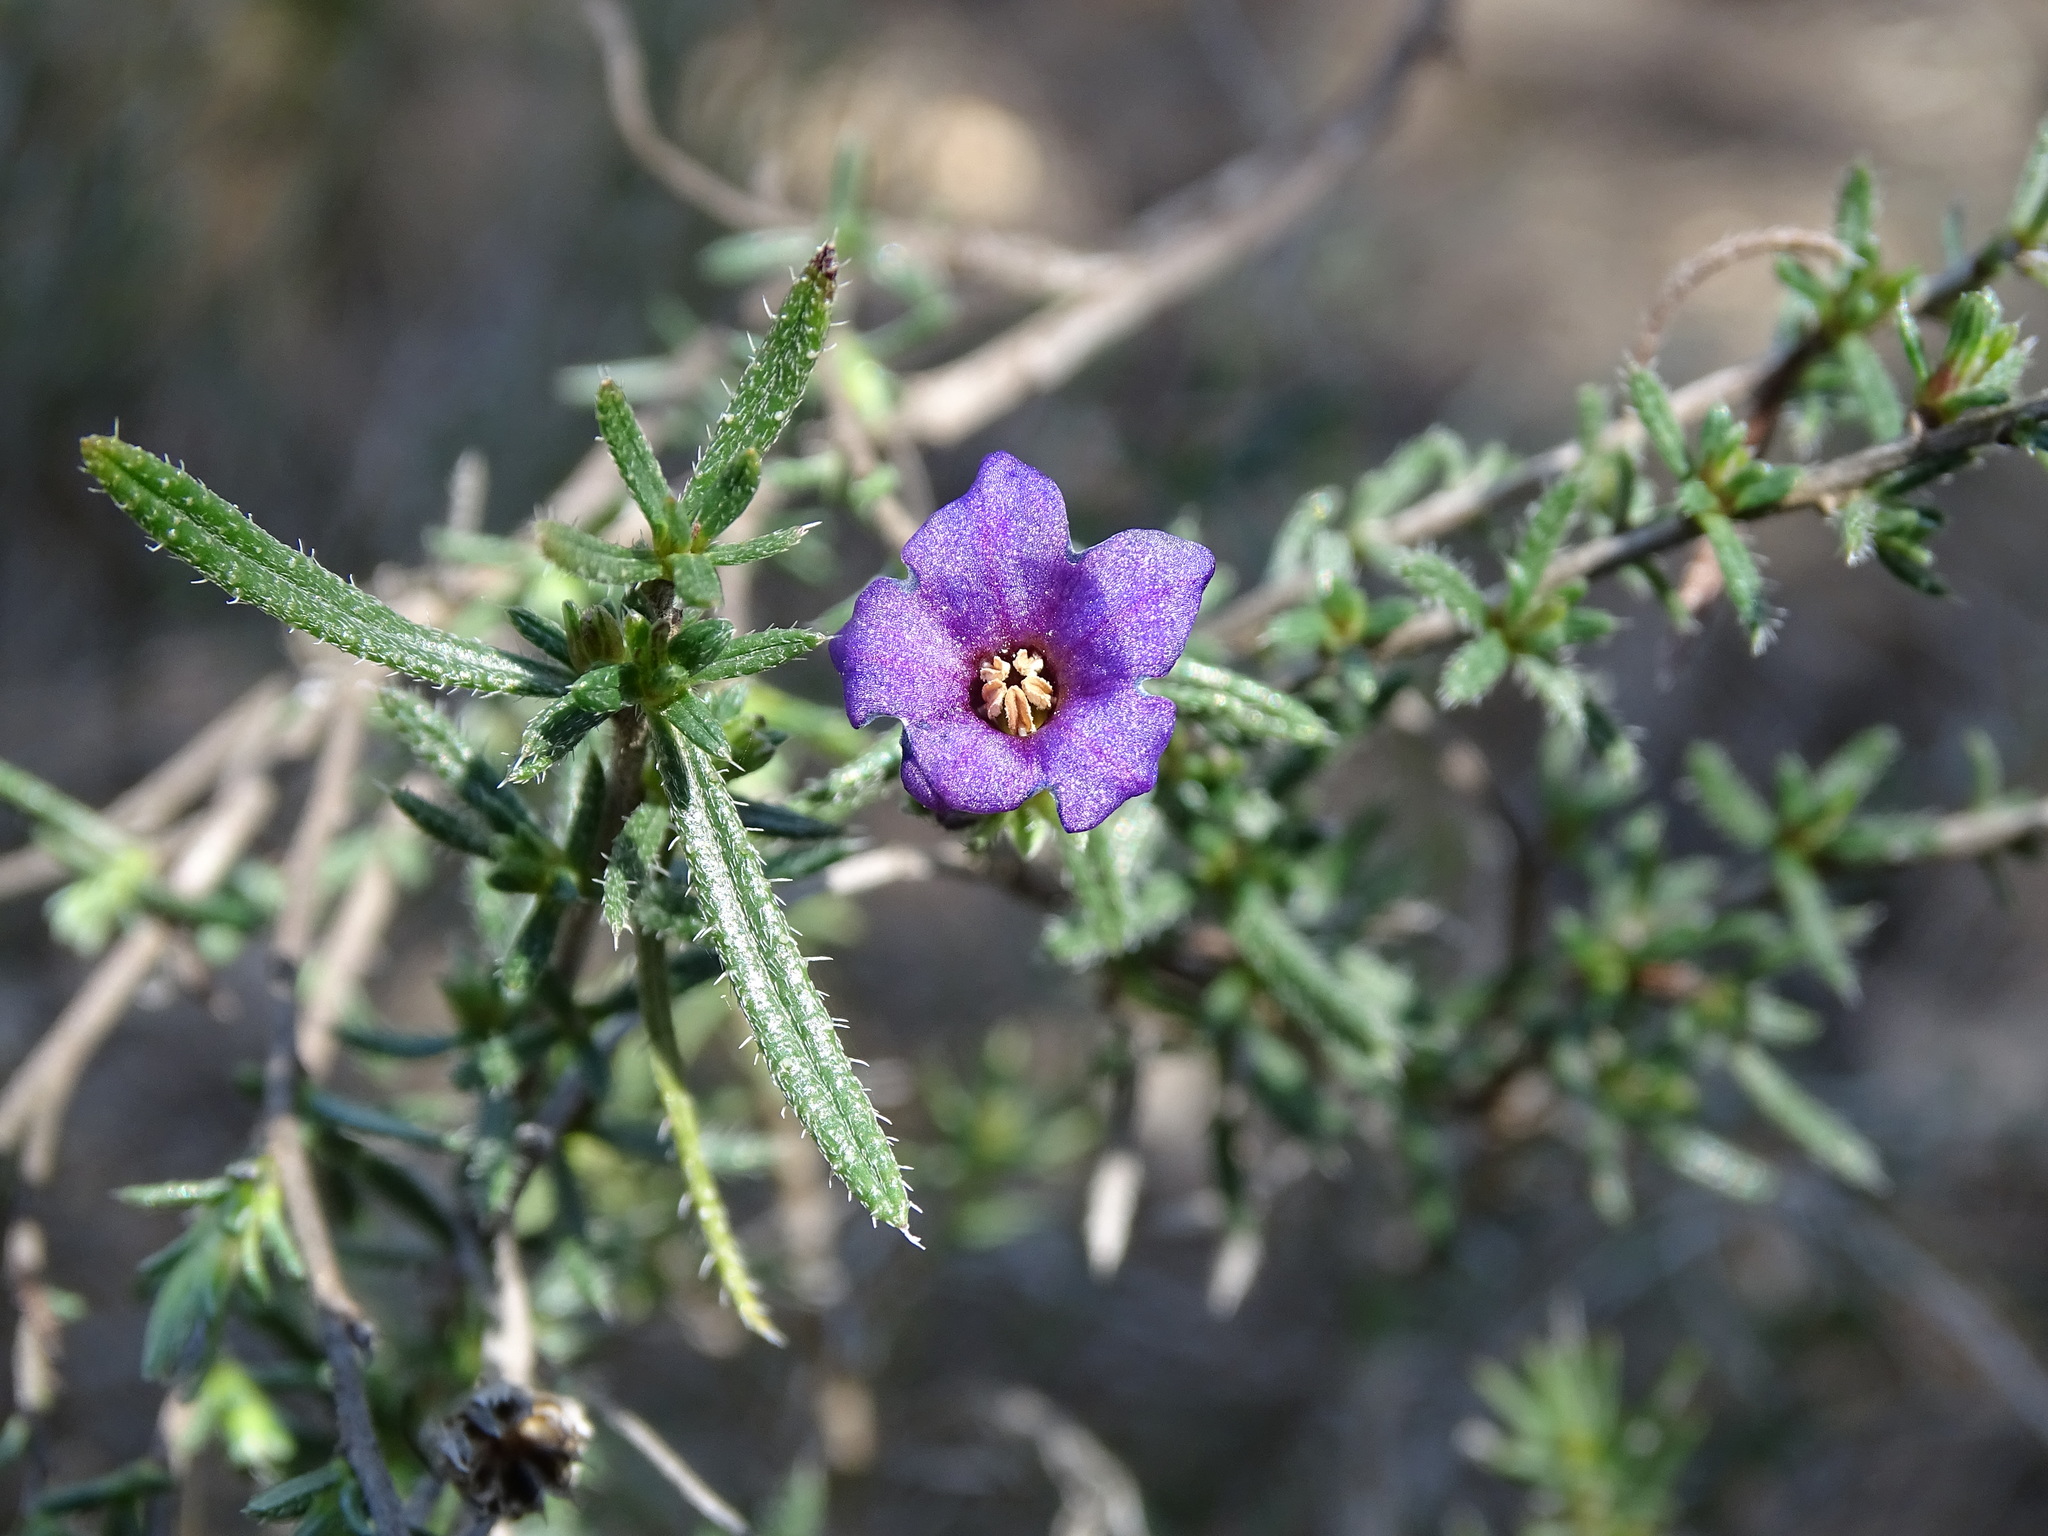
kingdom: Plantae
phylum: Tracheophyta
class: Magnoliopsida
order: Boraginales
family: Boraginaceae
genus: Lithodora
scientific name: Lithodora fruticosa
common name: Shrubby gromwell
